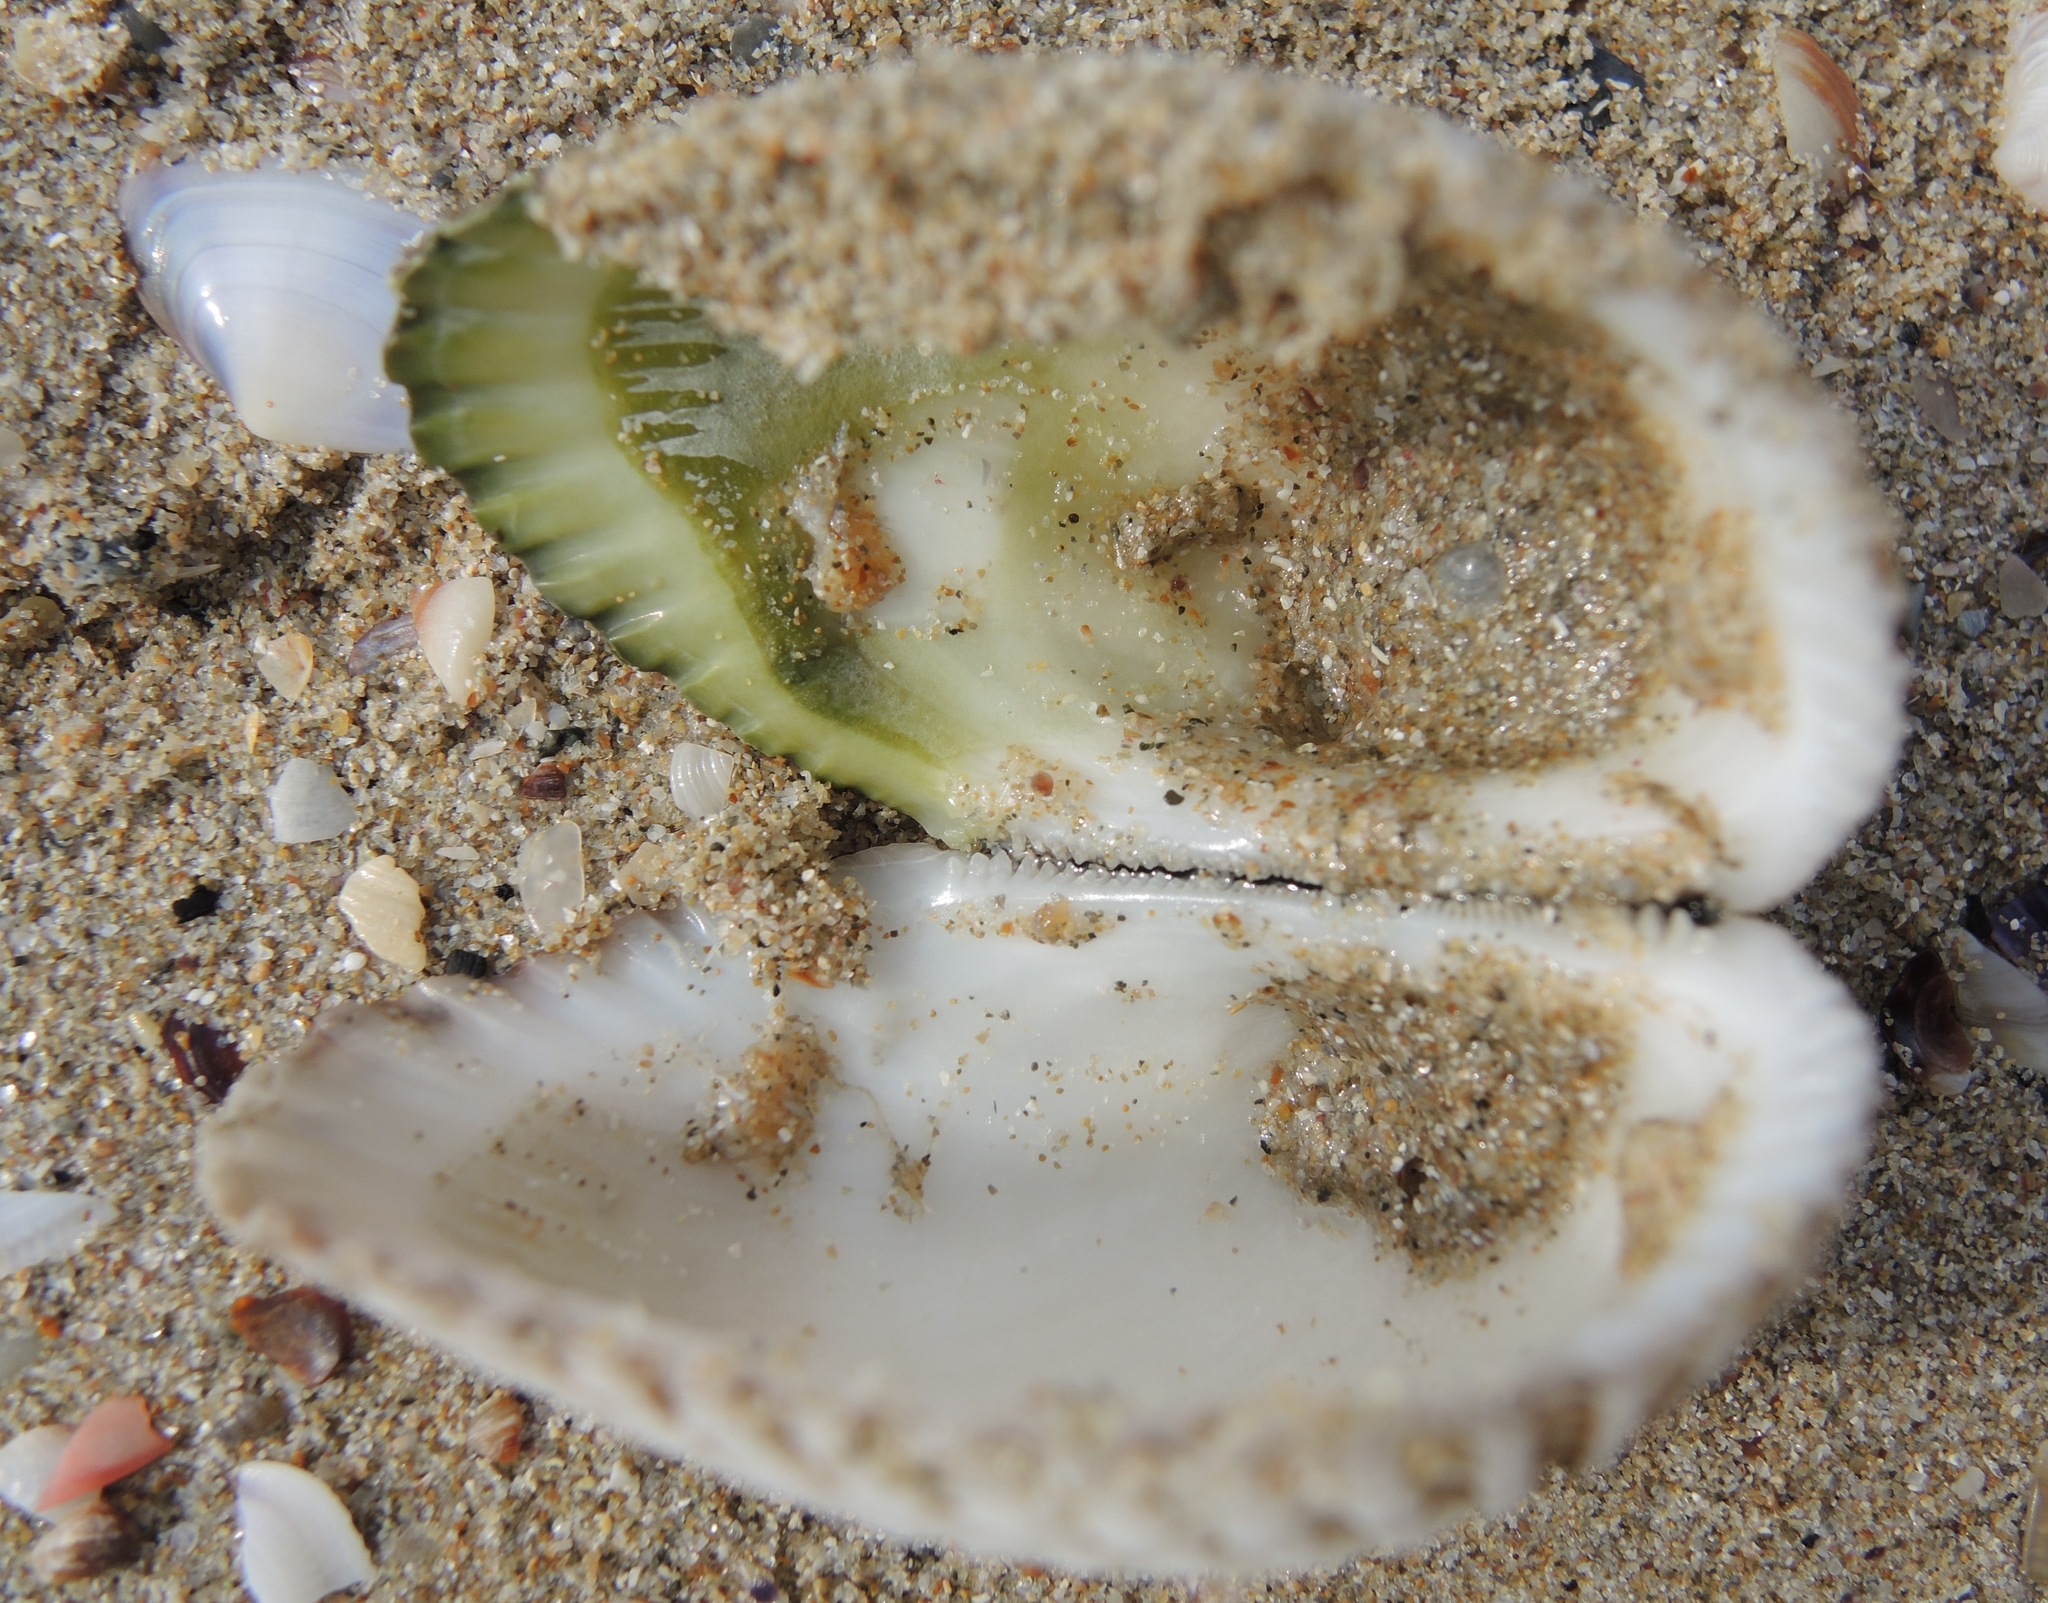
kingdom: Animalia
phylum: Mollusca
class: Bivalvia
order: Arcida
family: Arcidae
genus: Anadara
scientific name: Anadara kagoshimensis
